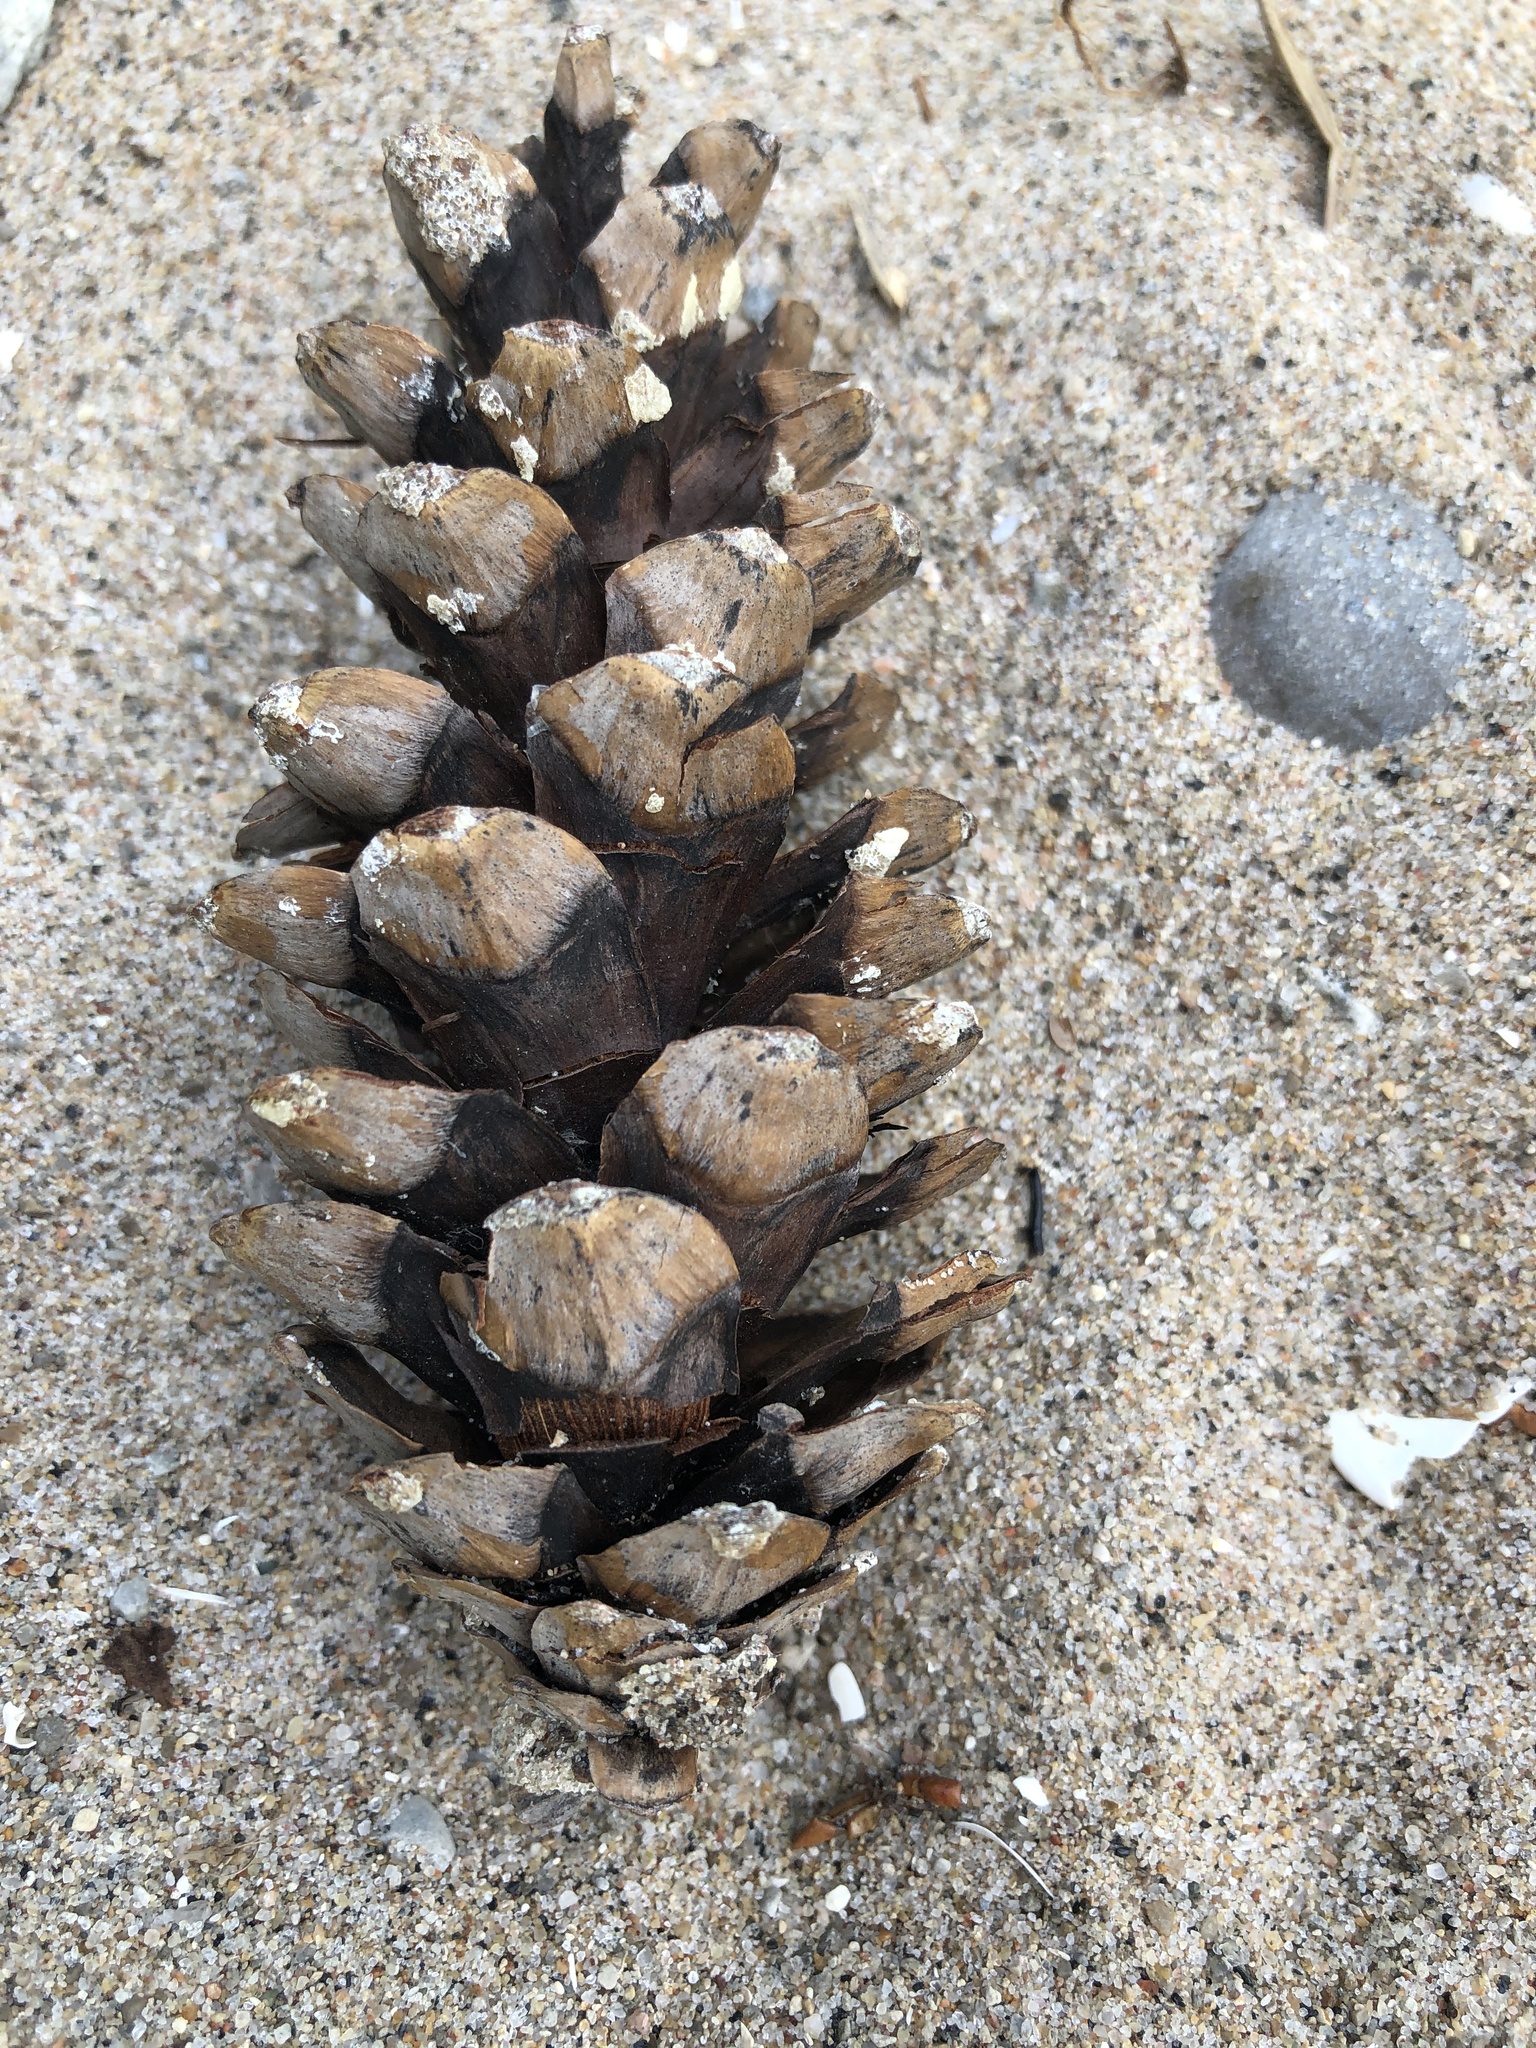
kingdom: Plantae
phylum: Tracheophyta
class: Pinopsida
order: Pinales
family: Pinaceae
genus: Pinus
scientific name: Pinus strobus
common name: Weymouth pine
